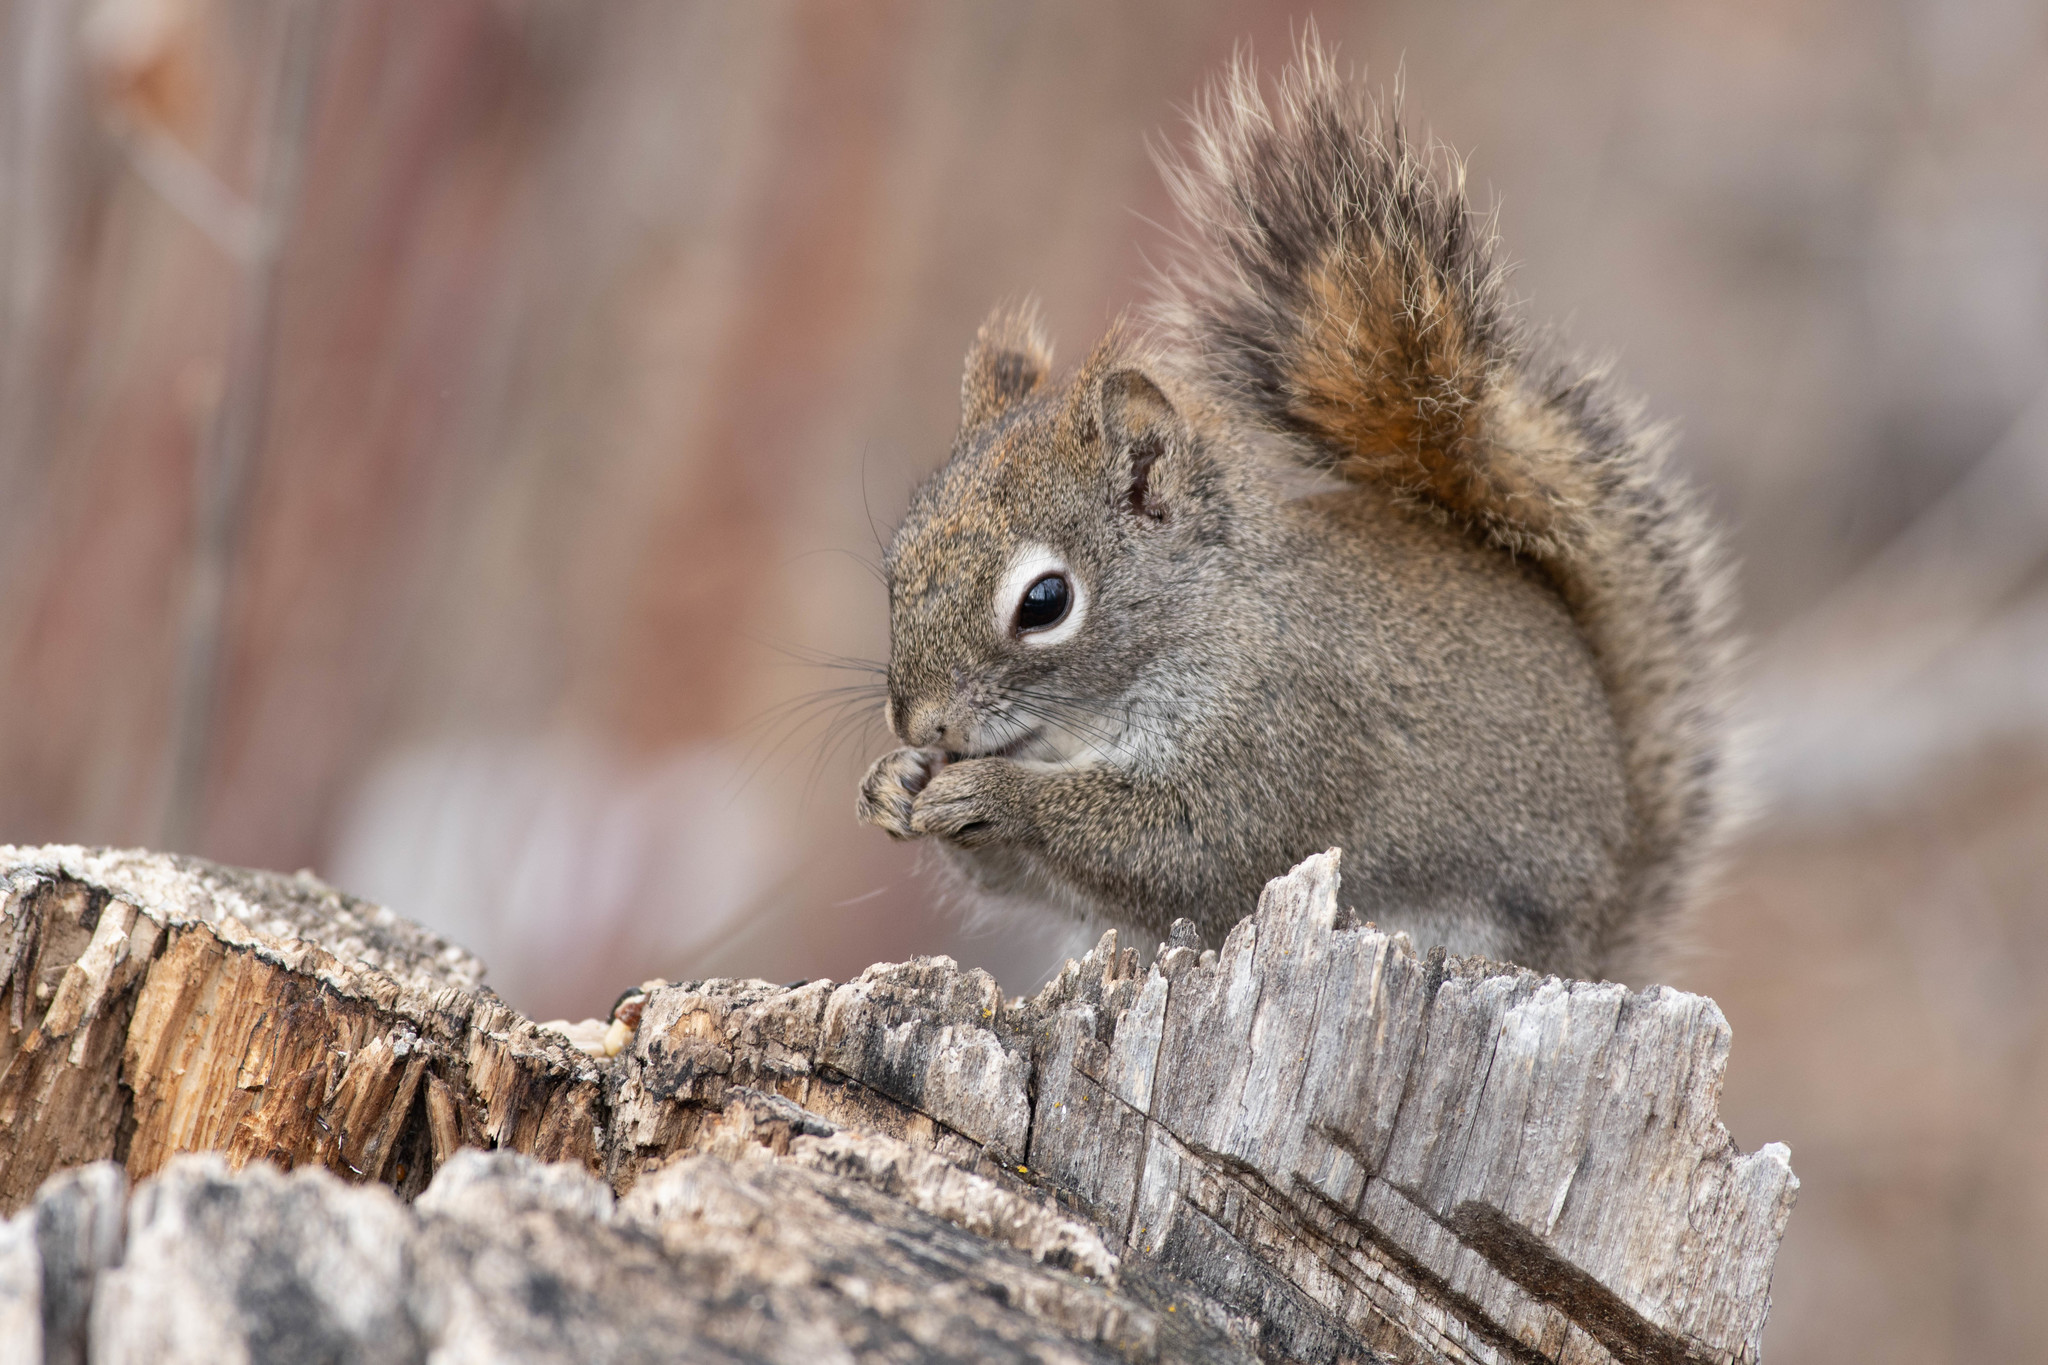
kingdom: Animalia
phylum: Chordata
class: Mammalia
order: Rodentia
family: Sciuridae
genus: Tamiasciurus
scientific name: Tamiasciurus hudsonicus
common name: Red squirrel
